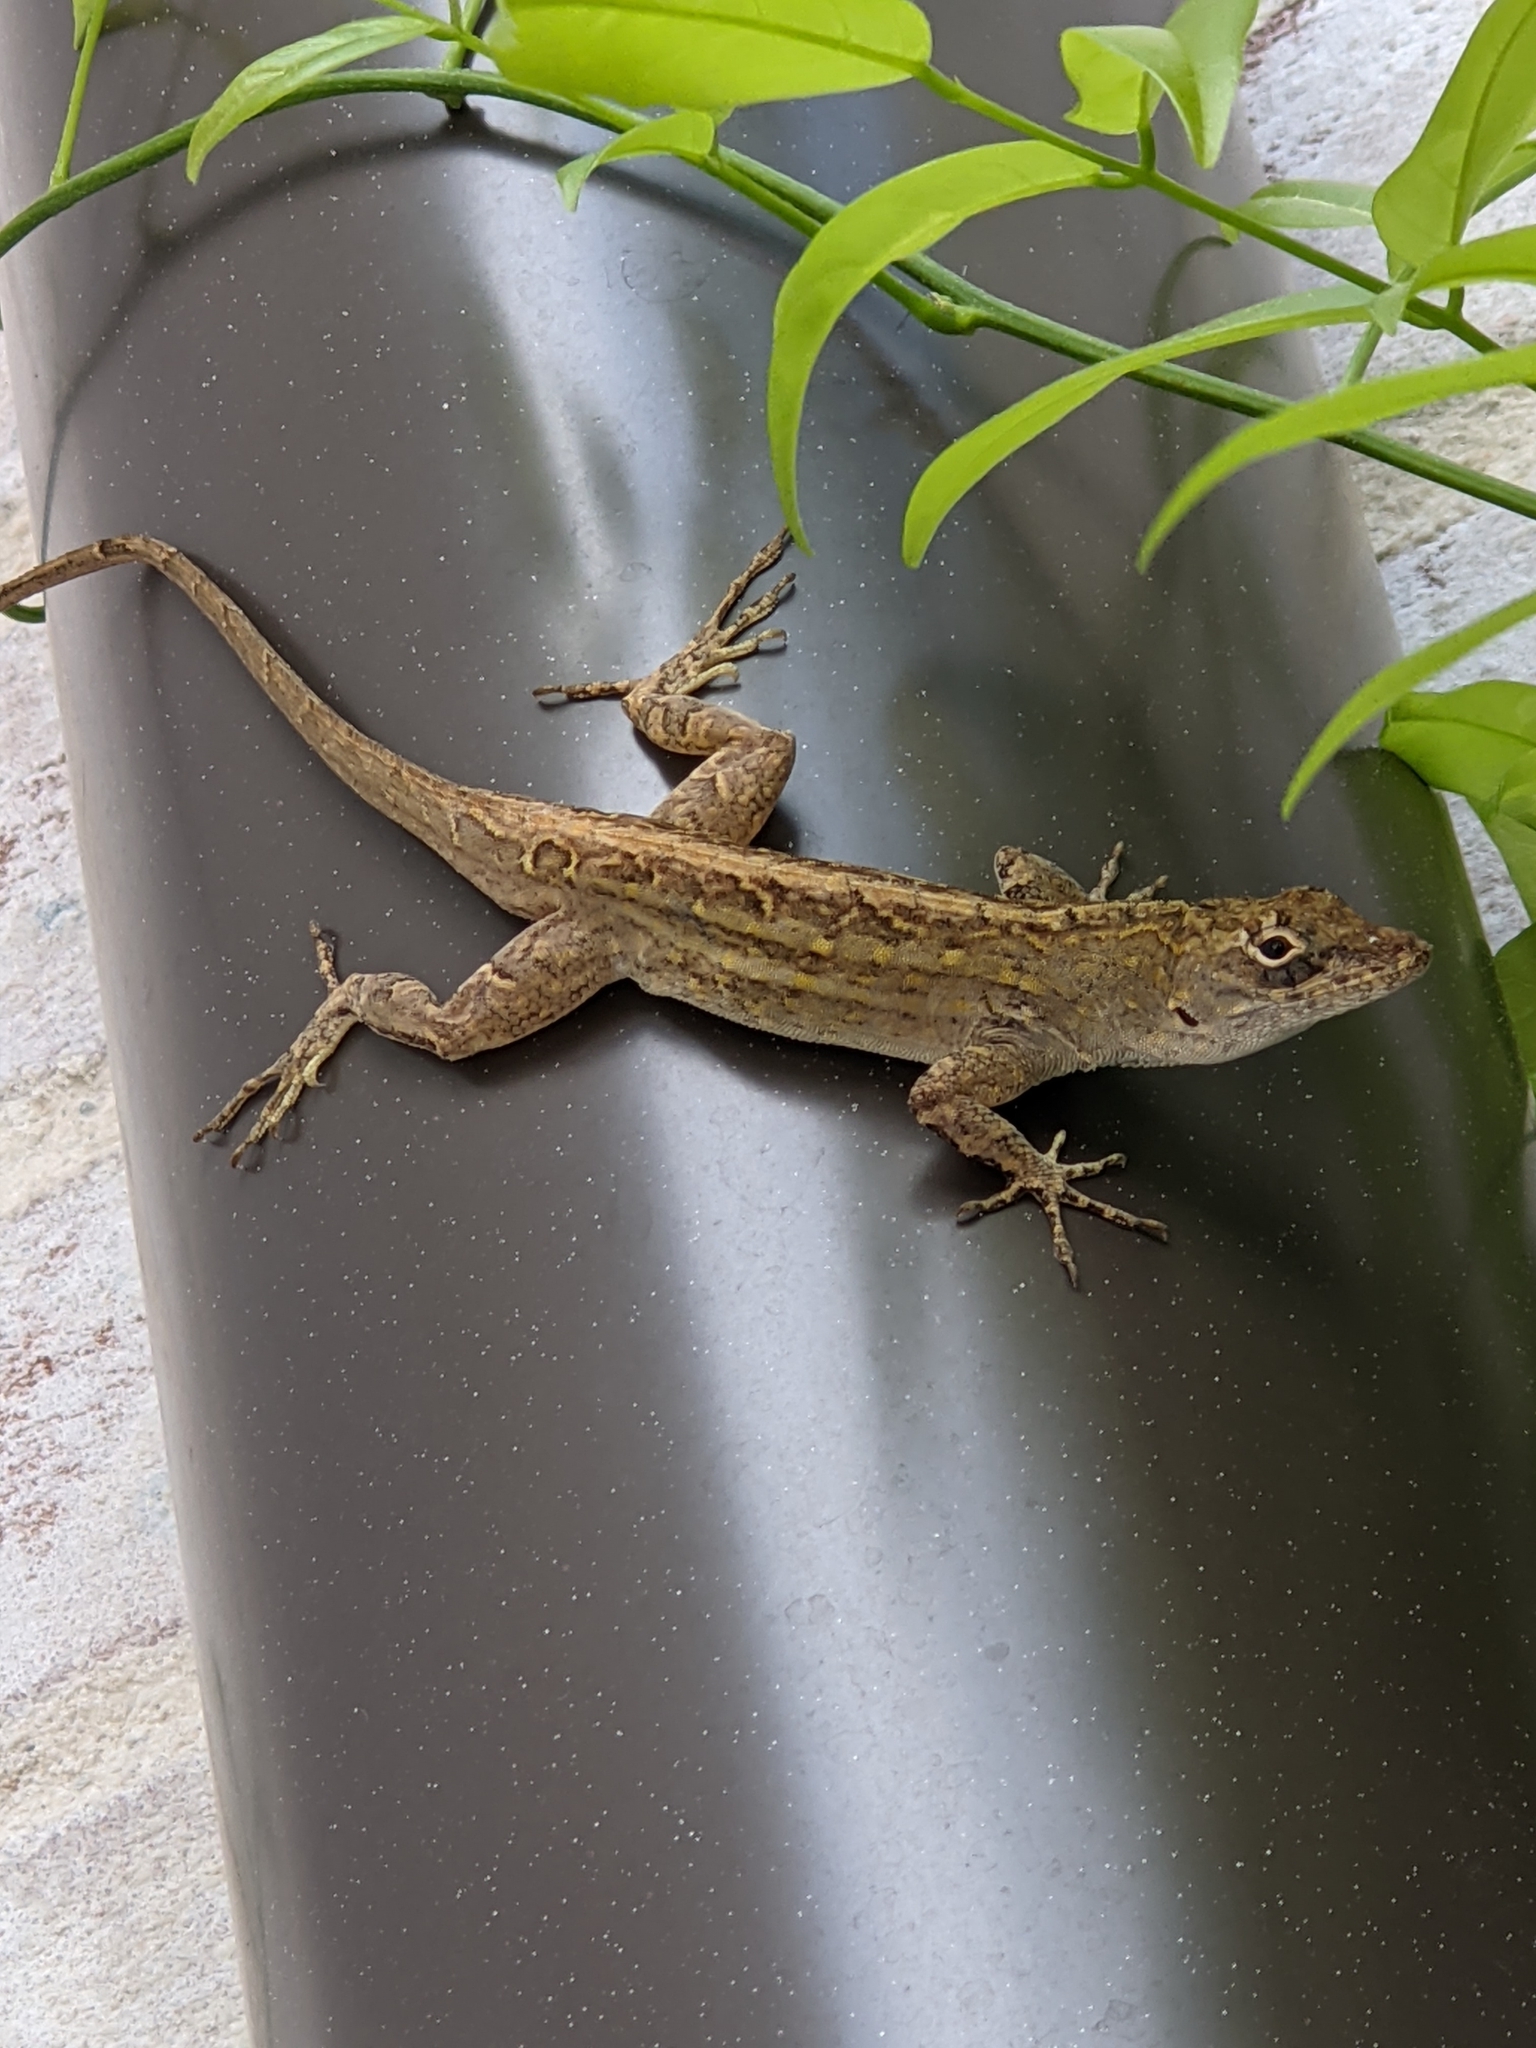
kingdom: Animalia
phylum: Chordata
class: Squamata
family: Dactyloidae
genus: Anolis
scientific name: Anolis sagrei
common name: Brown anole
